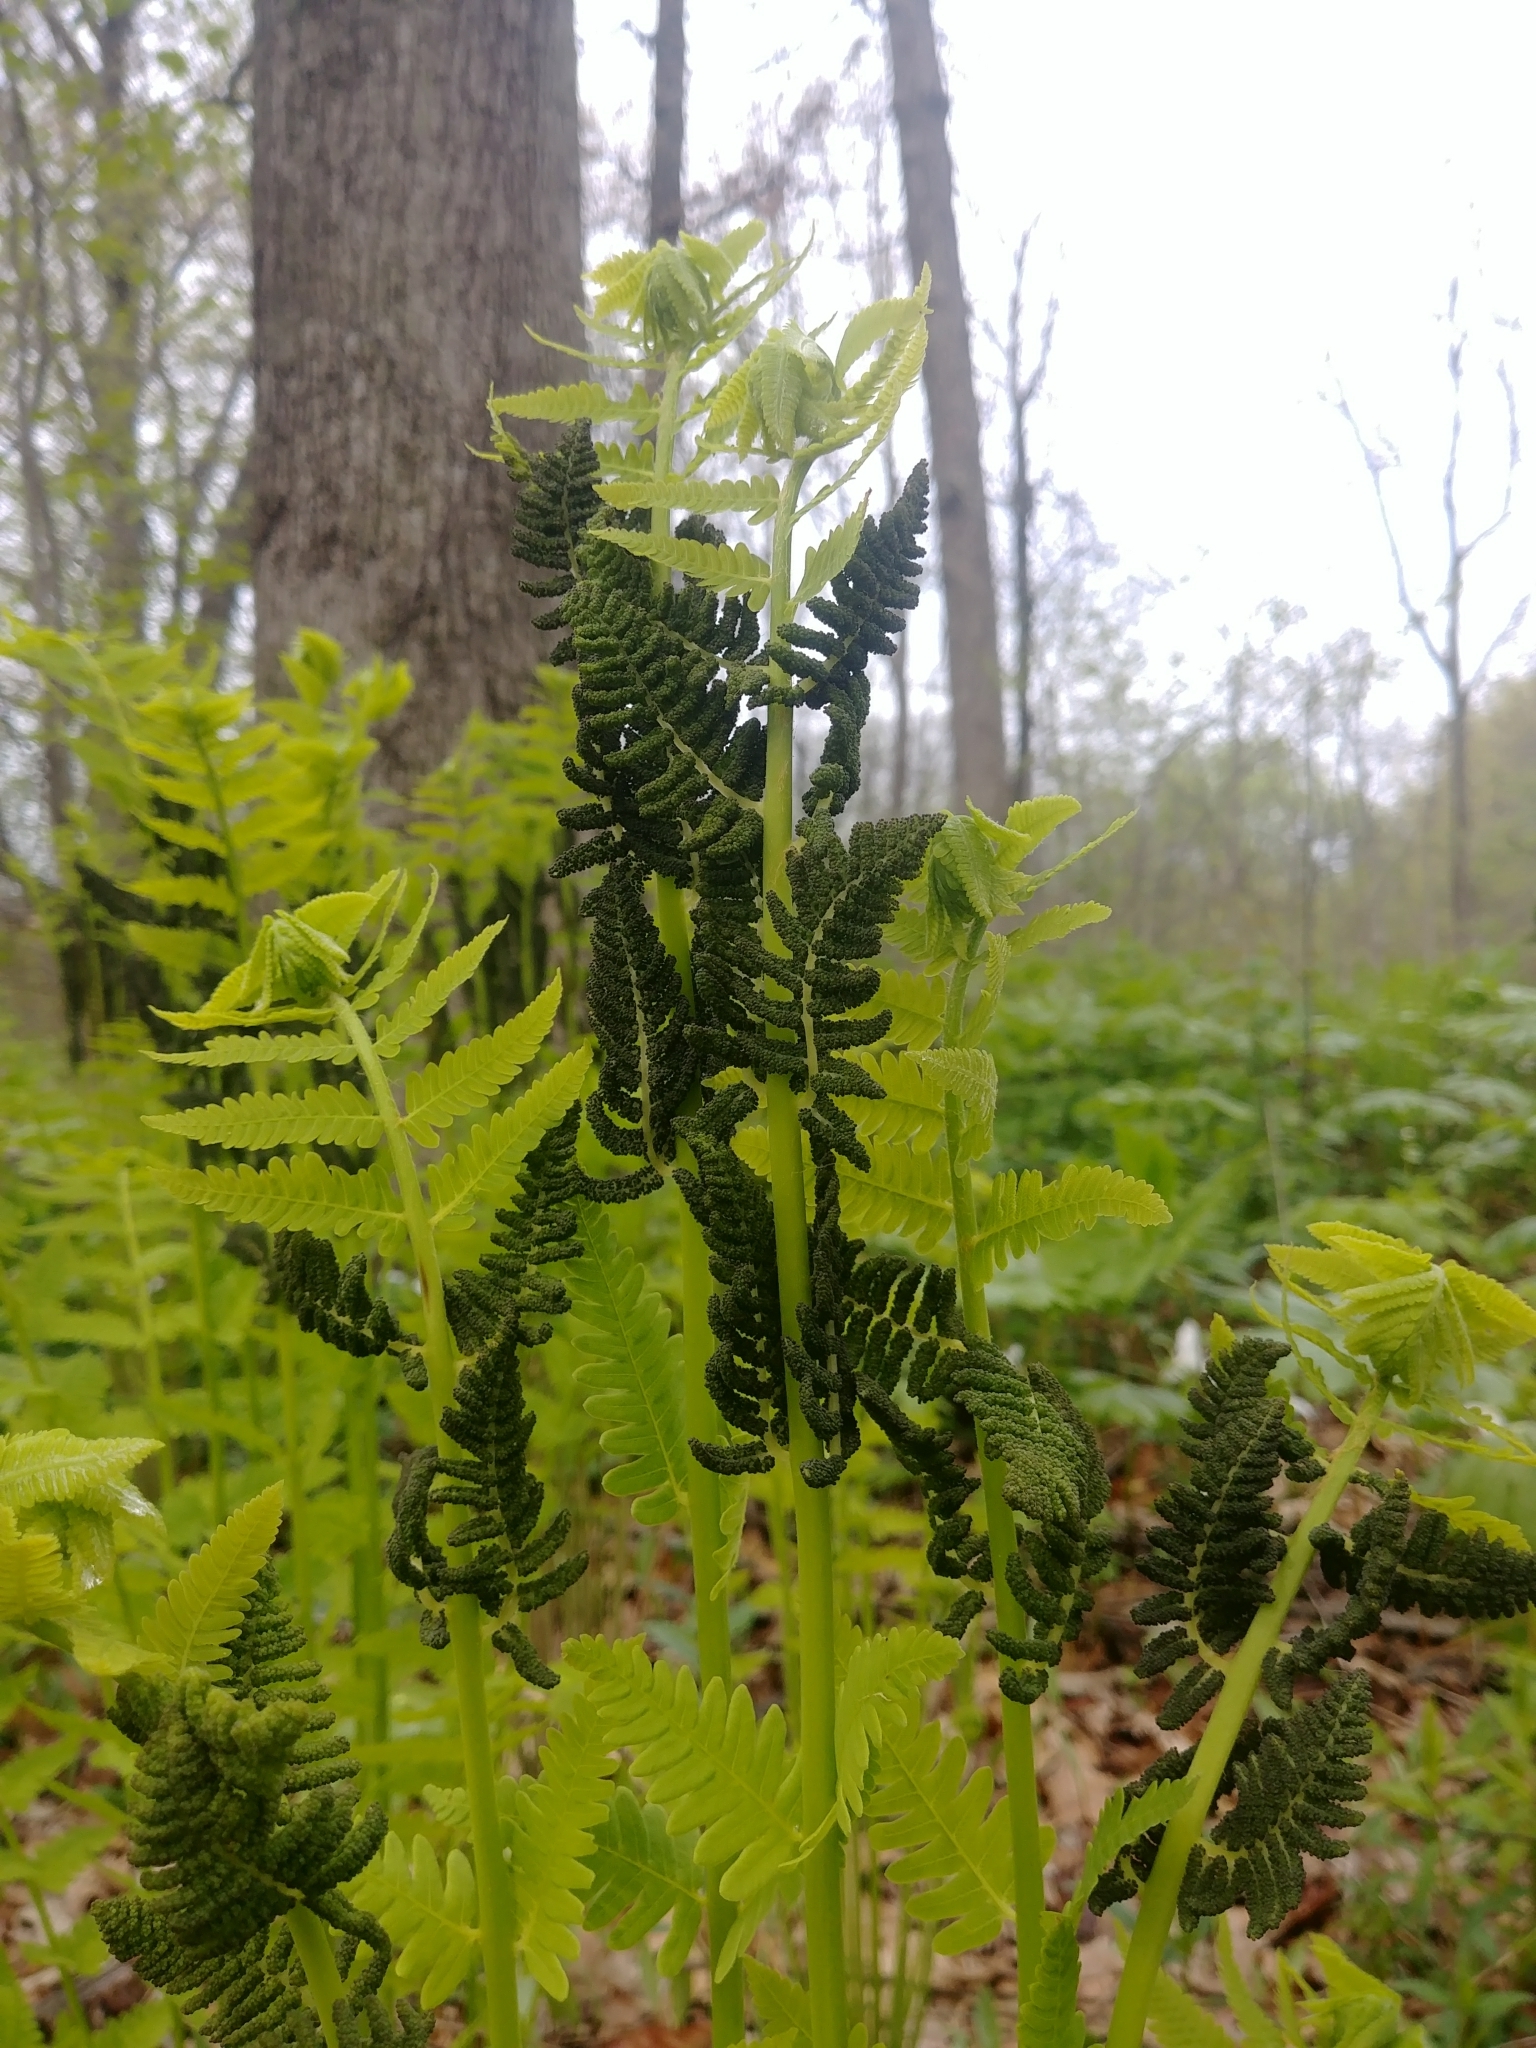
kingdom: Plantae
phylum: Tracheophyta
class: Polypodiopsida
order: Osmundales
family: Osmundaceae
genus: Claytosmunda
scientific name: Claytosmunda claytoniana
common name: Clayton's fern
